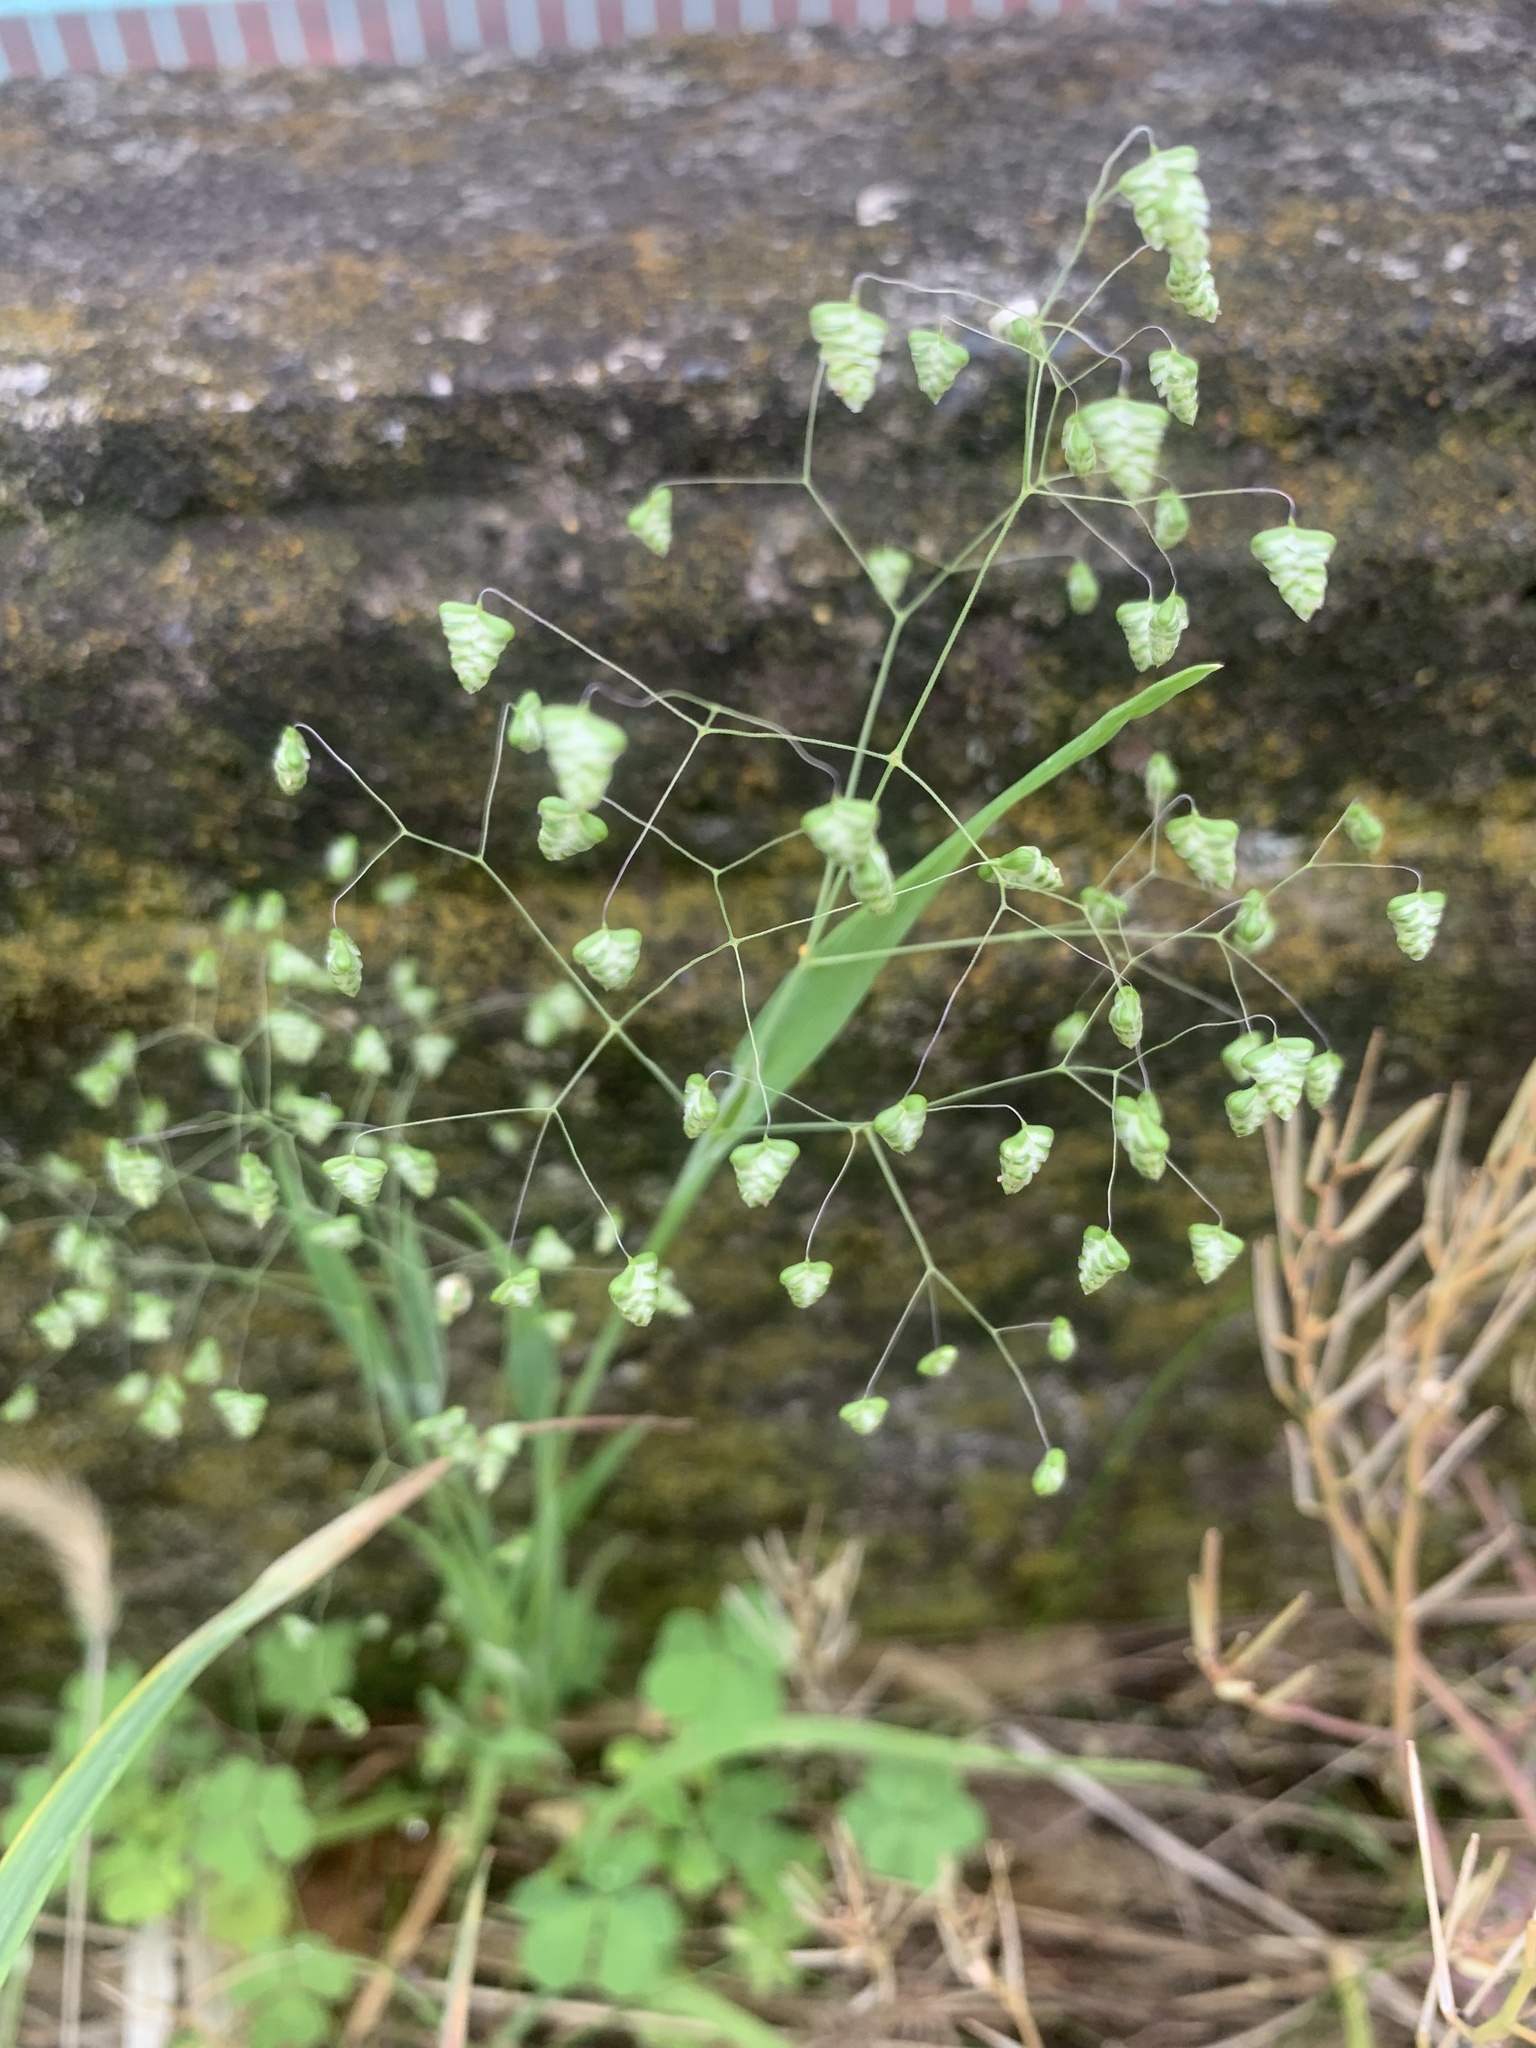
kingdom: Plantae
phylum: Tracheophyta
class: Liliopsida
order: Poales
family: Poaceae
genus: Briza
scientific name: Briza minor
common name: Lesser quaking-grass
